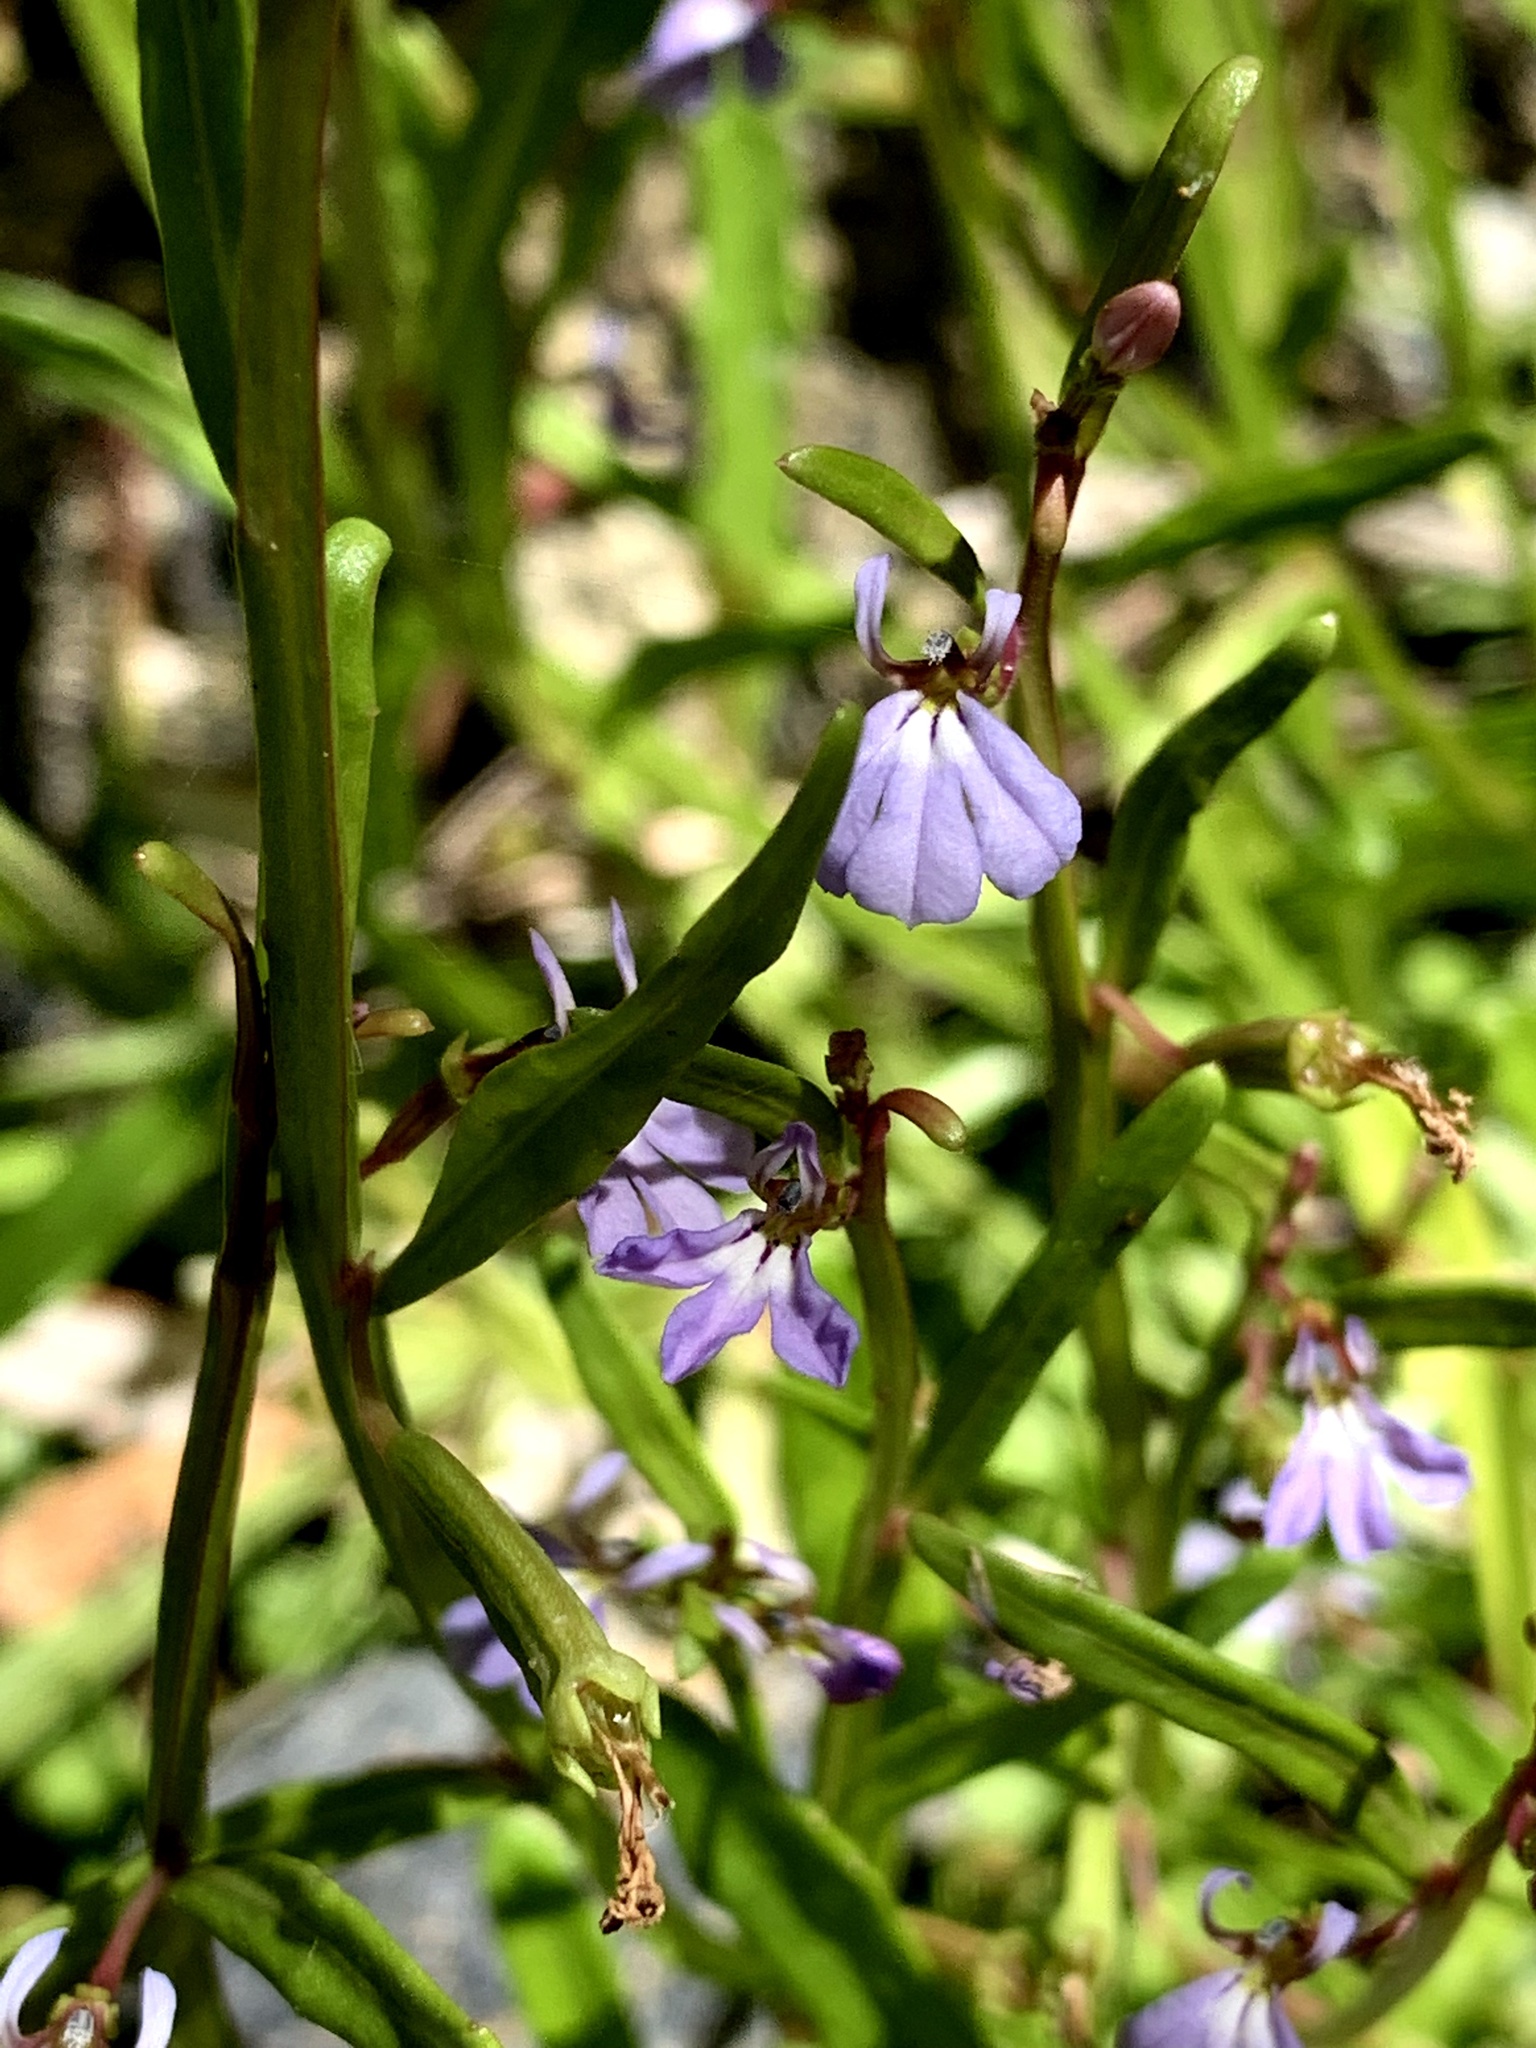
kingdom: Plantae
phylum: Tracheophyta
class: Magnoliopsida
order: Asterales
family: Campanulaceae
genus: Lobelia
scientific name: Lobelia anceps
